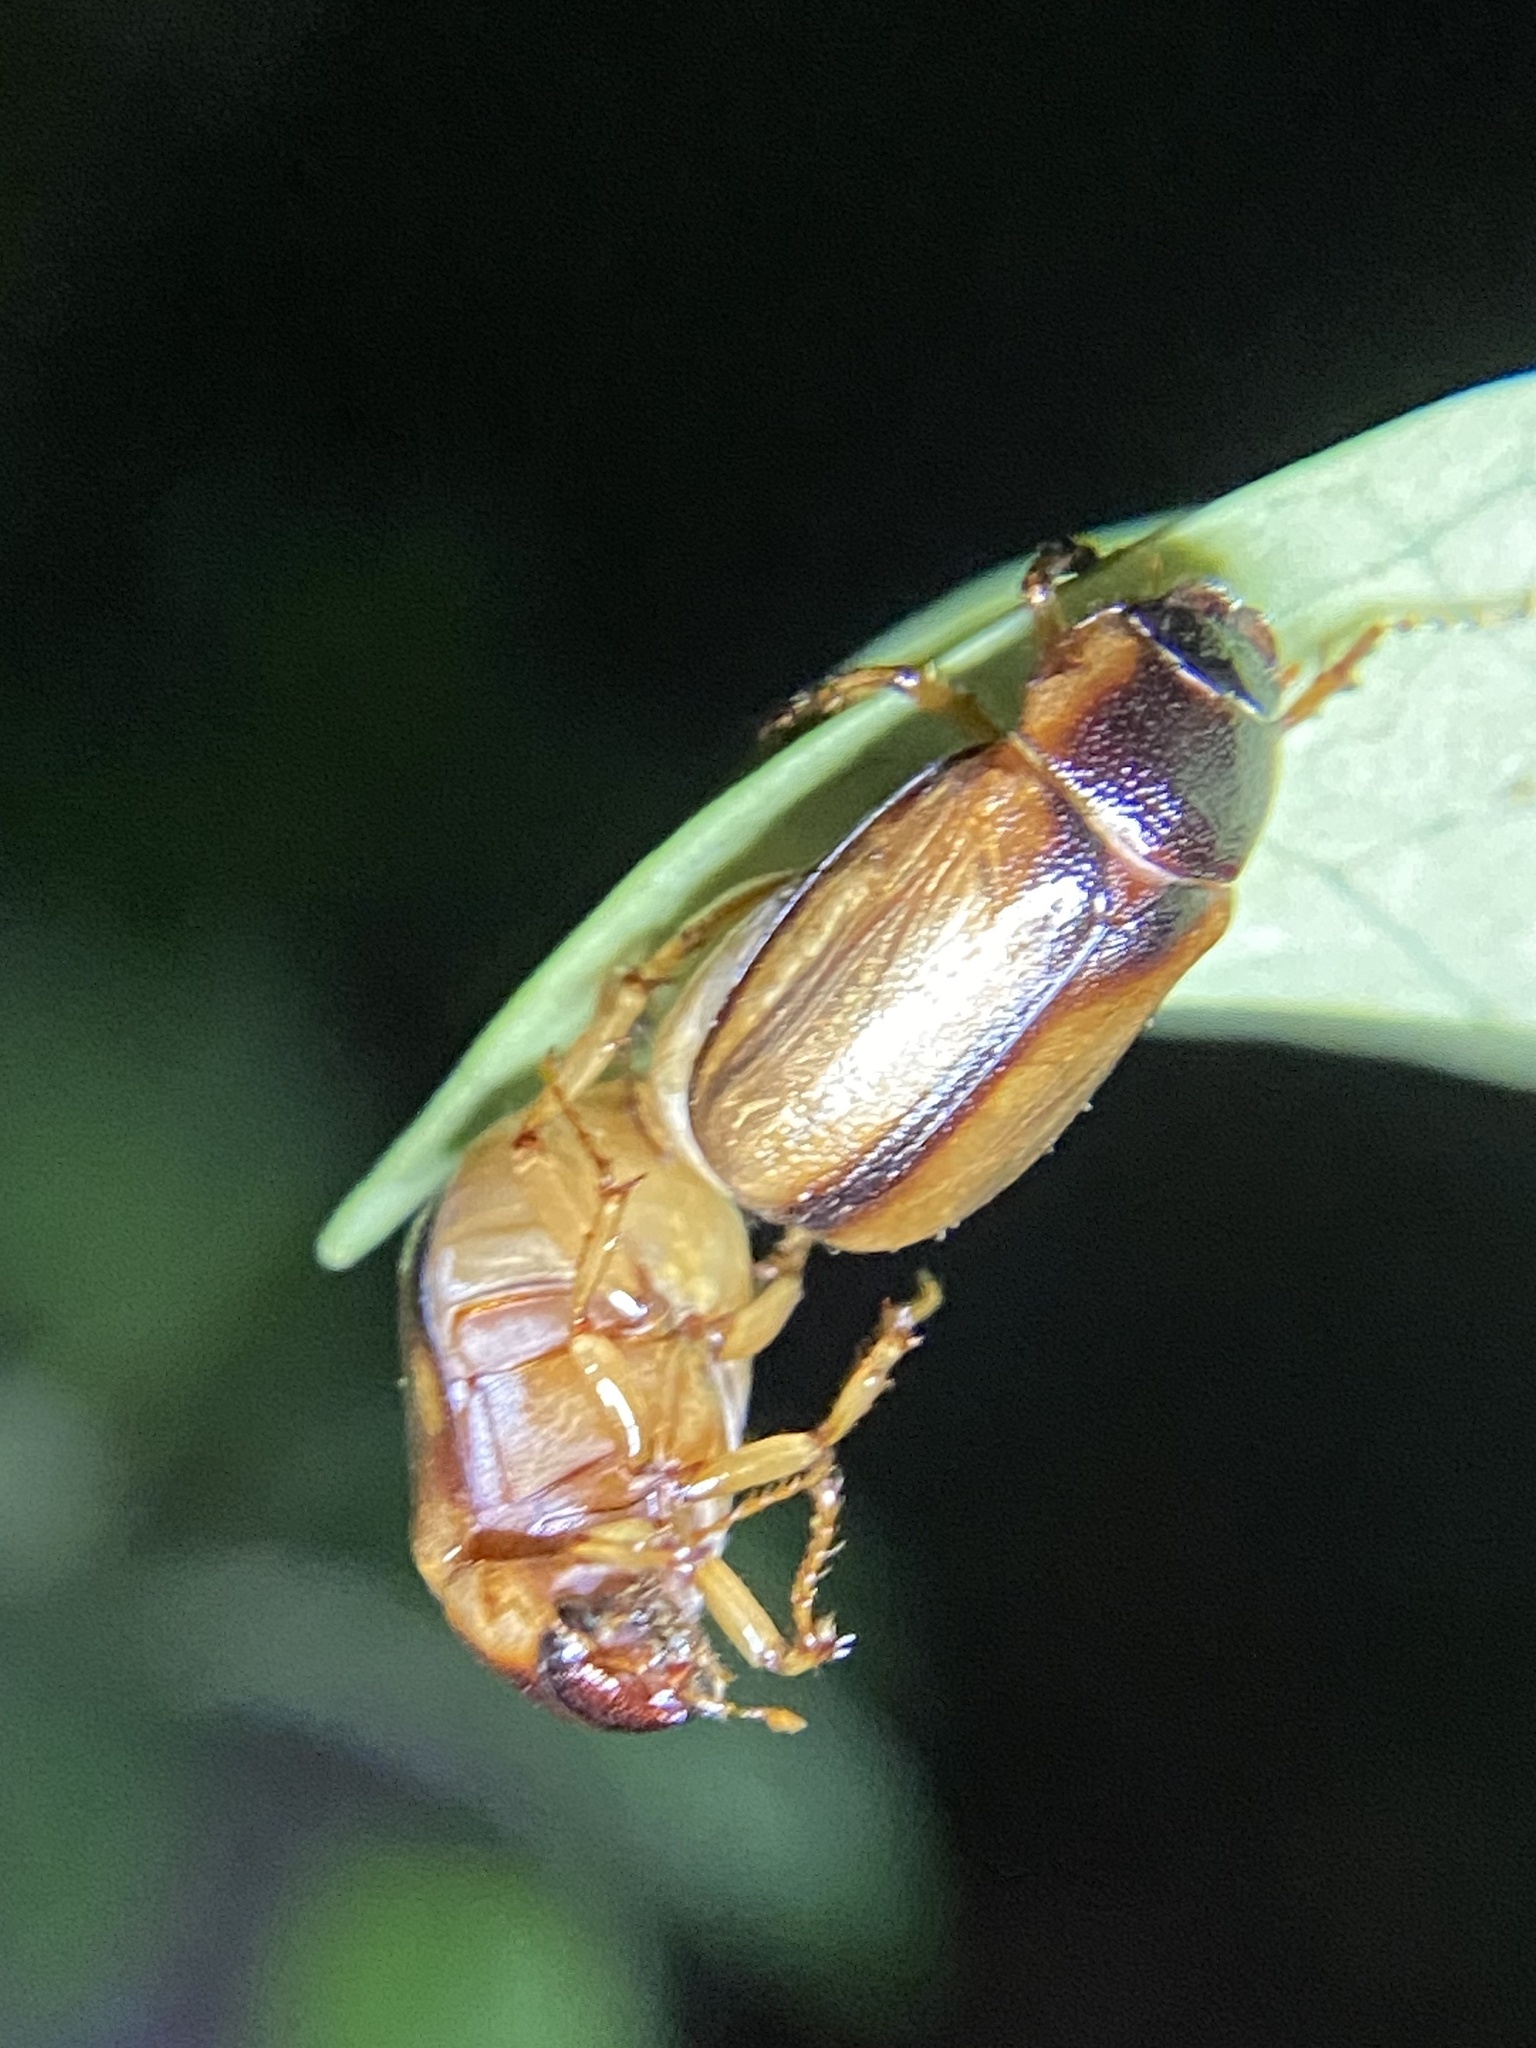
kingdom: Animalia
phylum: Arthropoda
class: Insecta
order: Coleoptera
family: Scarabaeidae
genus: Phyllophaga
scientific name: Phyllophaga bruneri
